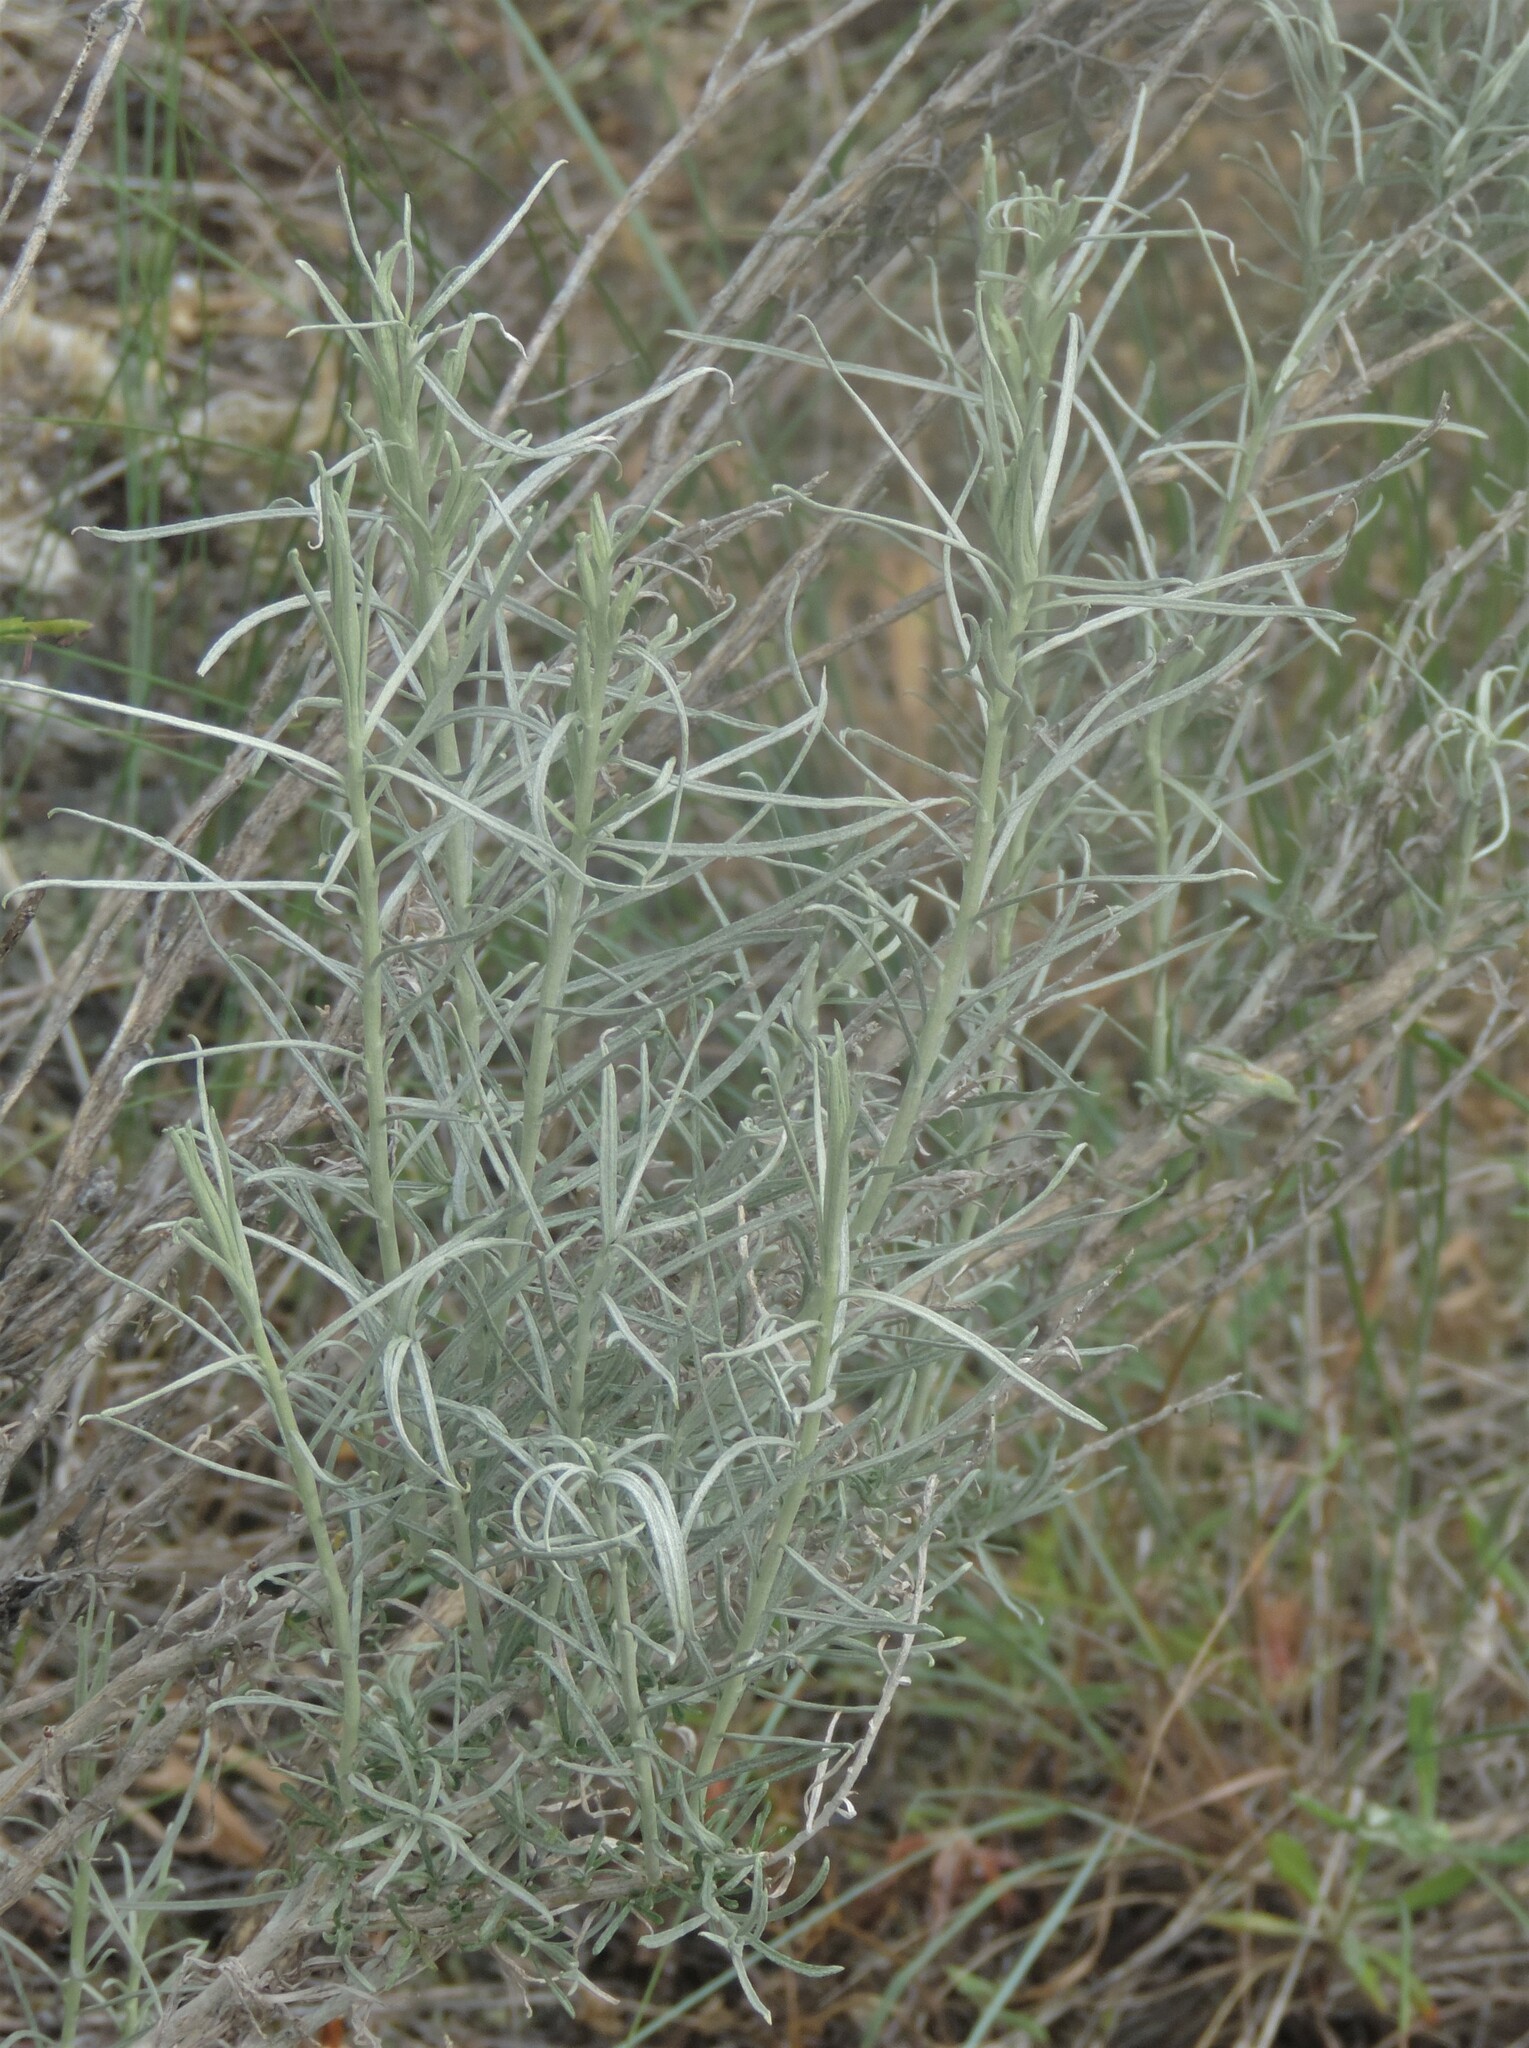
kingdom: Plantae
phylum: Tracheophyta
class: Magnoliopsida
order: Asterales
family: Asteraceae
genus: Ericameria
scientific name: Ericameria nauseosa
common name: Rubber rabbitbrush
